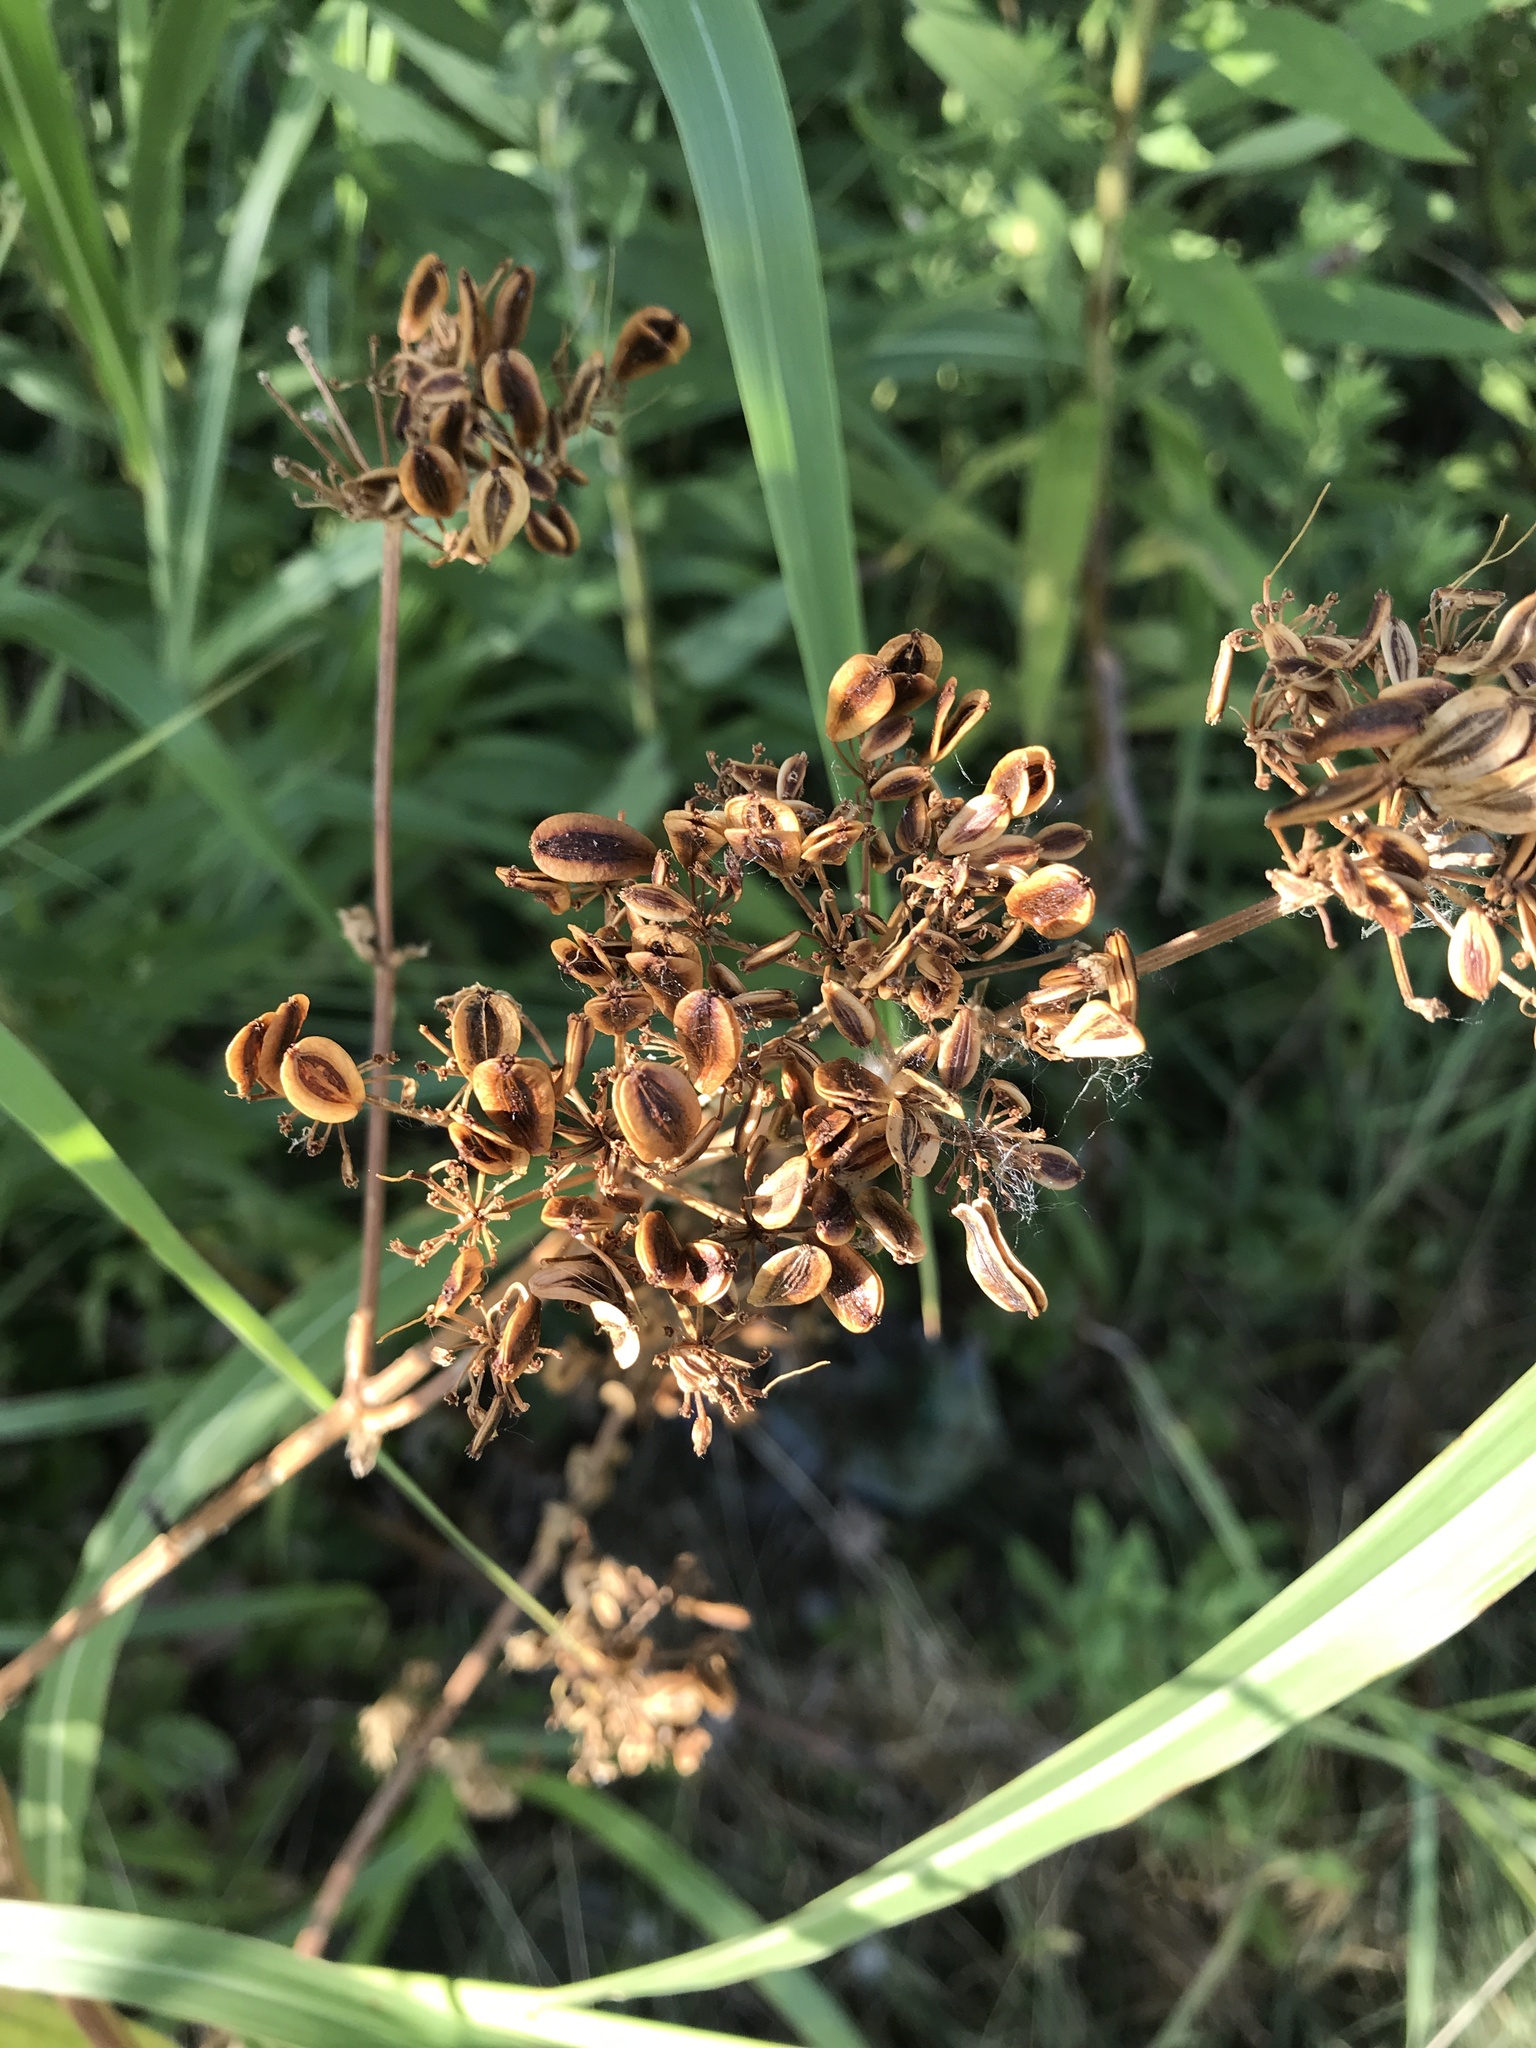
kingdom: Plantae
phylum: Tracheophyta
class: Magnoliopsida
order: Apiales
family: Apiaceae
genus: Polytaenia
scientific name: Polytaenia texana
